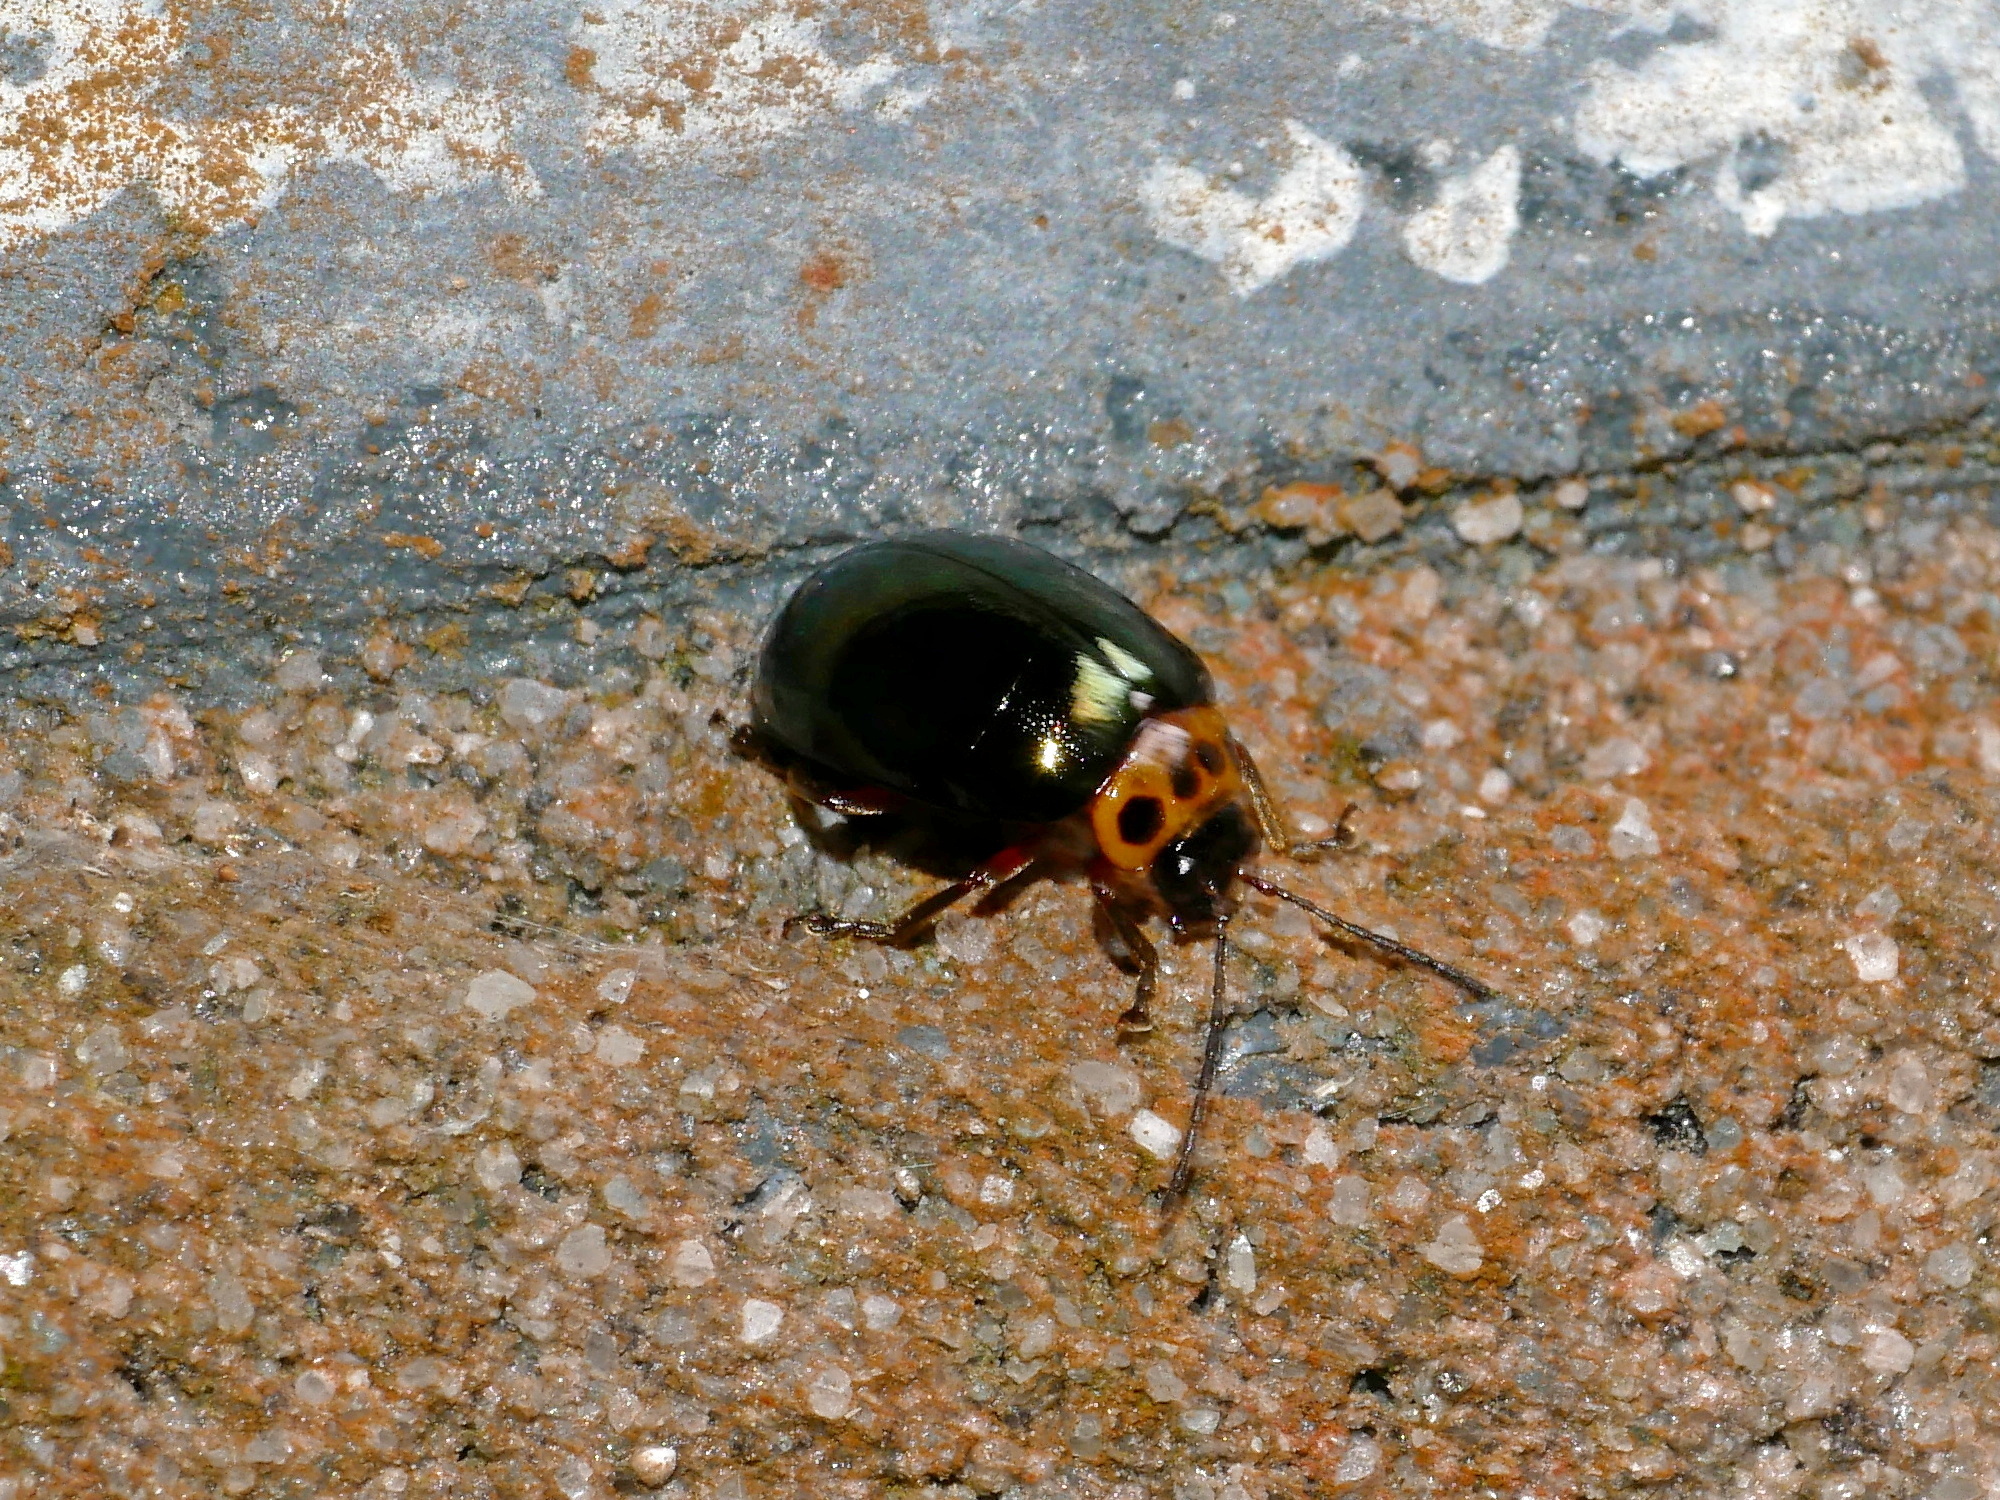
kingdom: Animalia
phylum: Arthropoda
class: Insecta
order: Coleoptera
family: Chrysomelidae
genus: Morphosphaera
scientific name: Morphosphaera chrysomeloides
